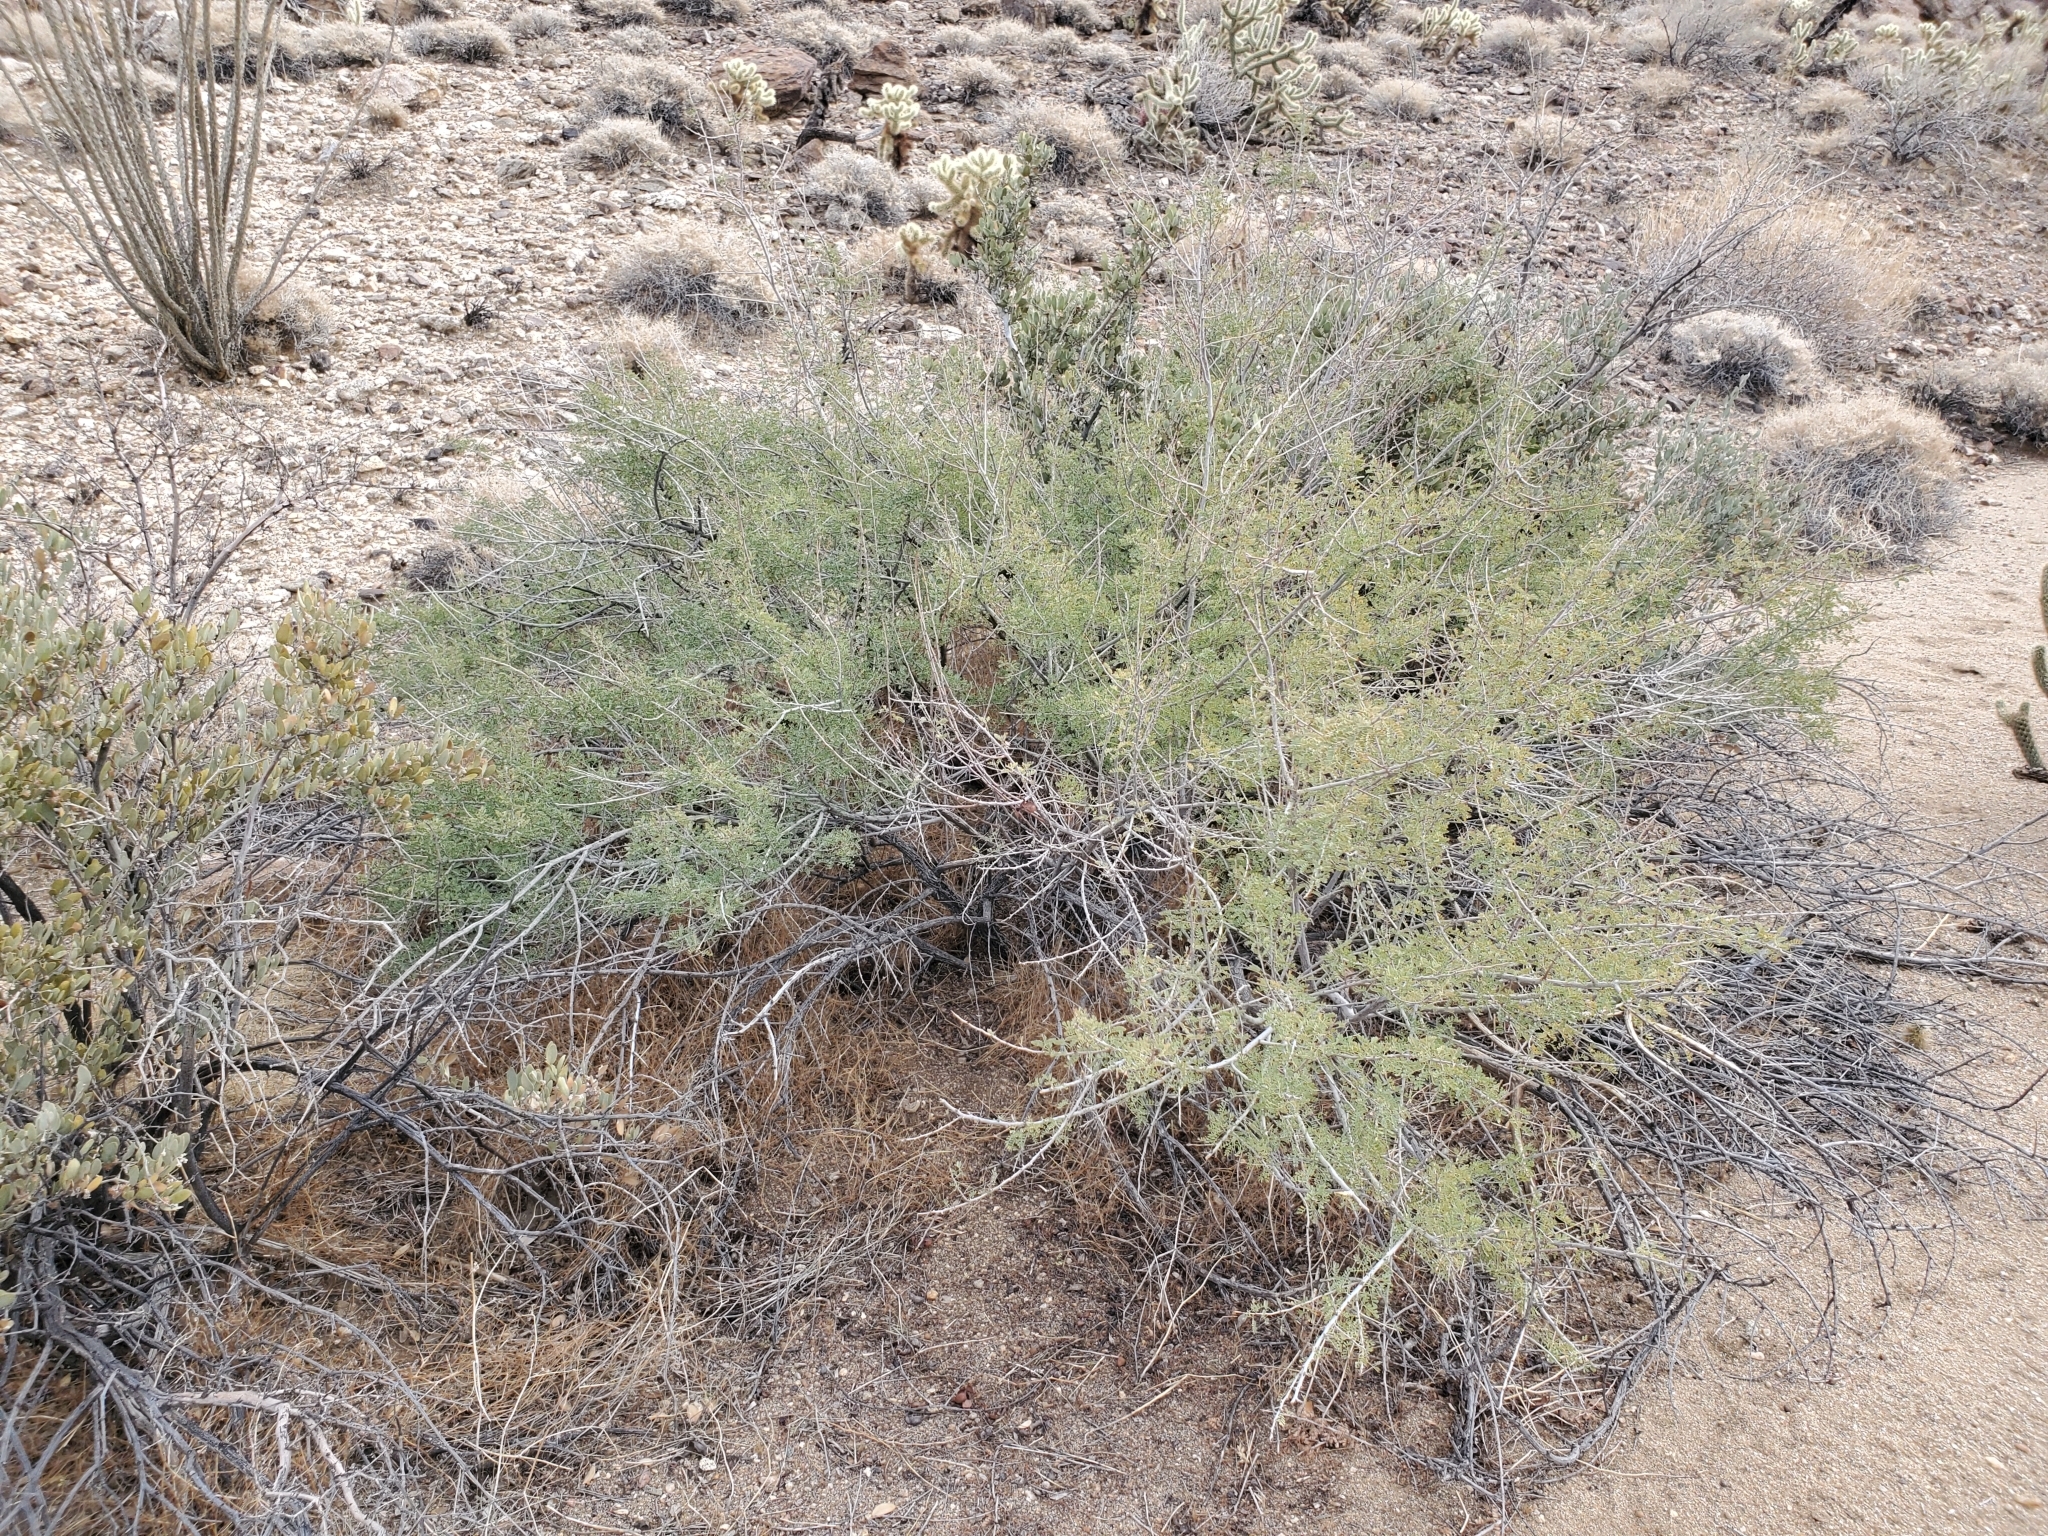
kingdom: Plantae
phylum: Tracheophyta
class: Magnoliopsida
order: Fabales
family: Fabaceae
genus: Senegalia
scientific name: Senegalia greggii
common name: Texas-mimosa
